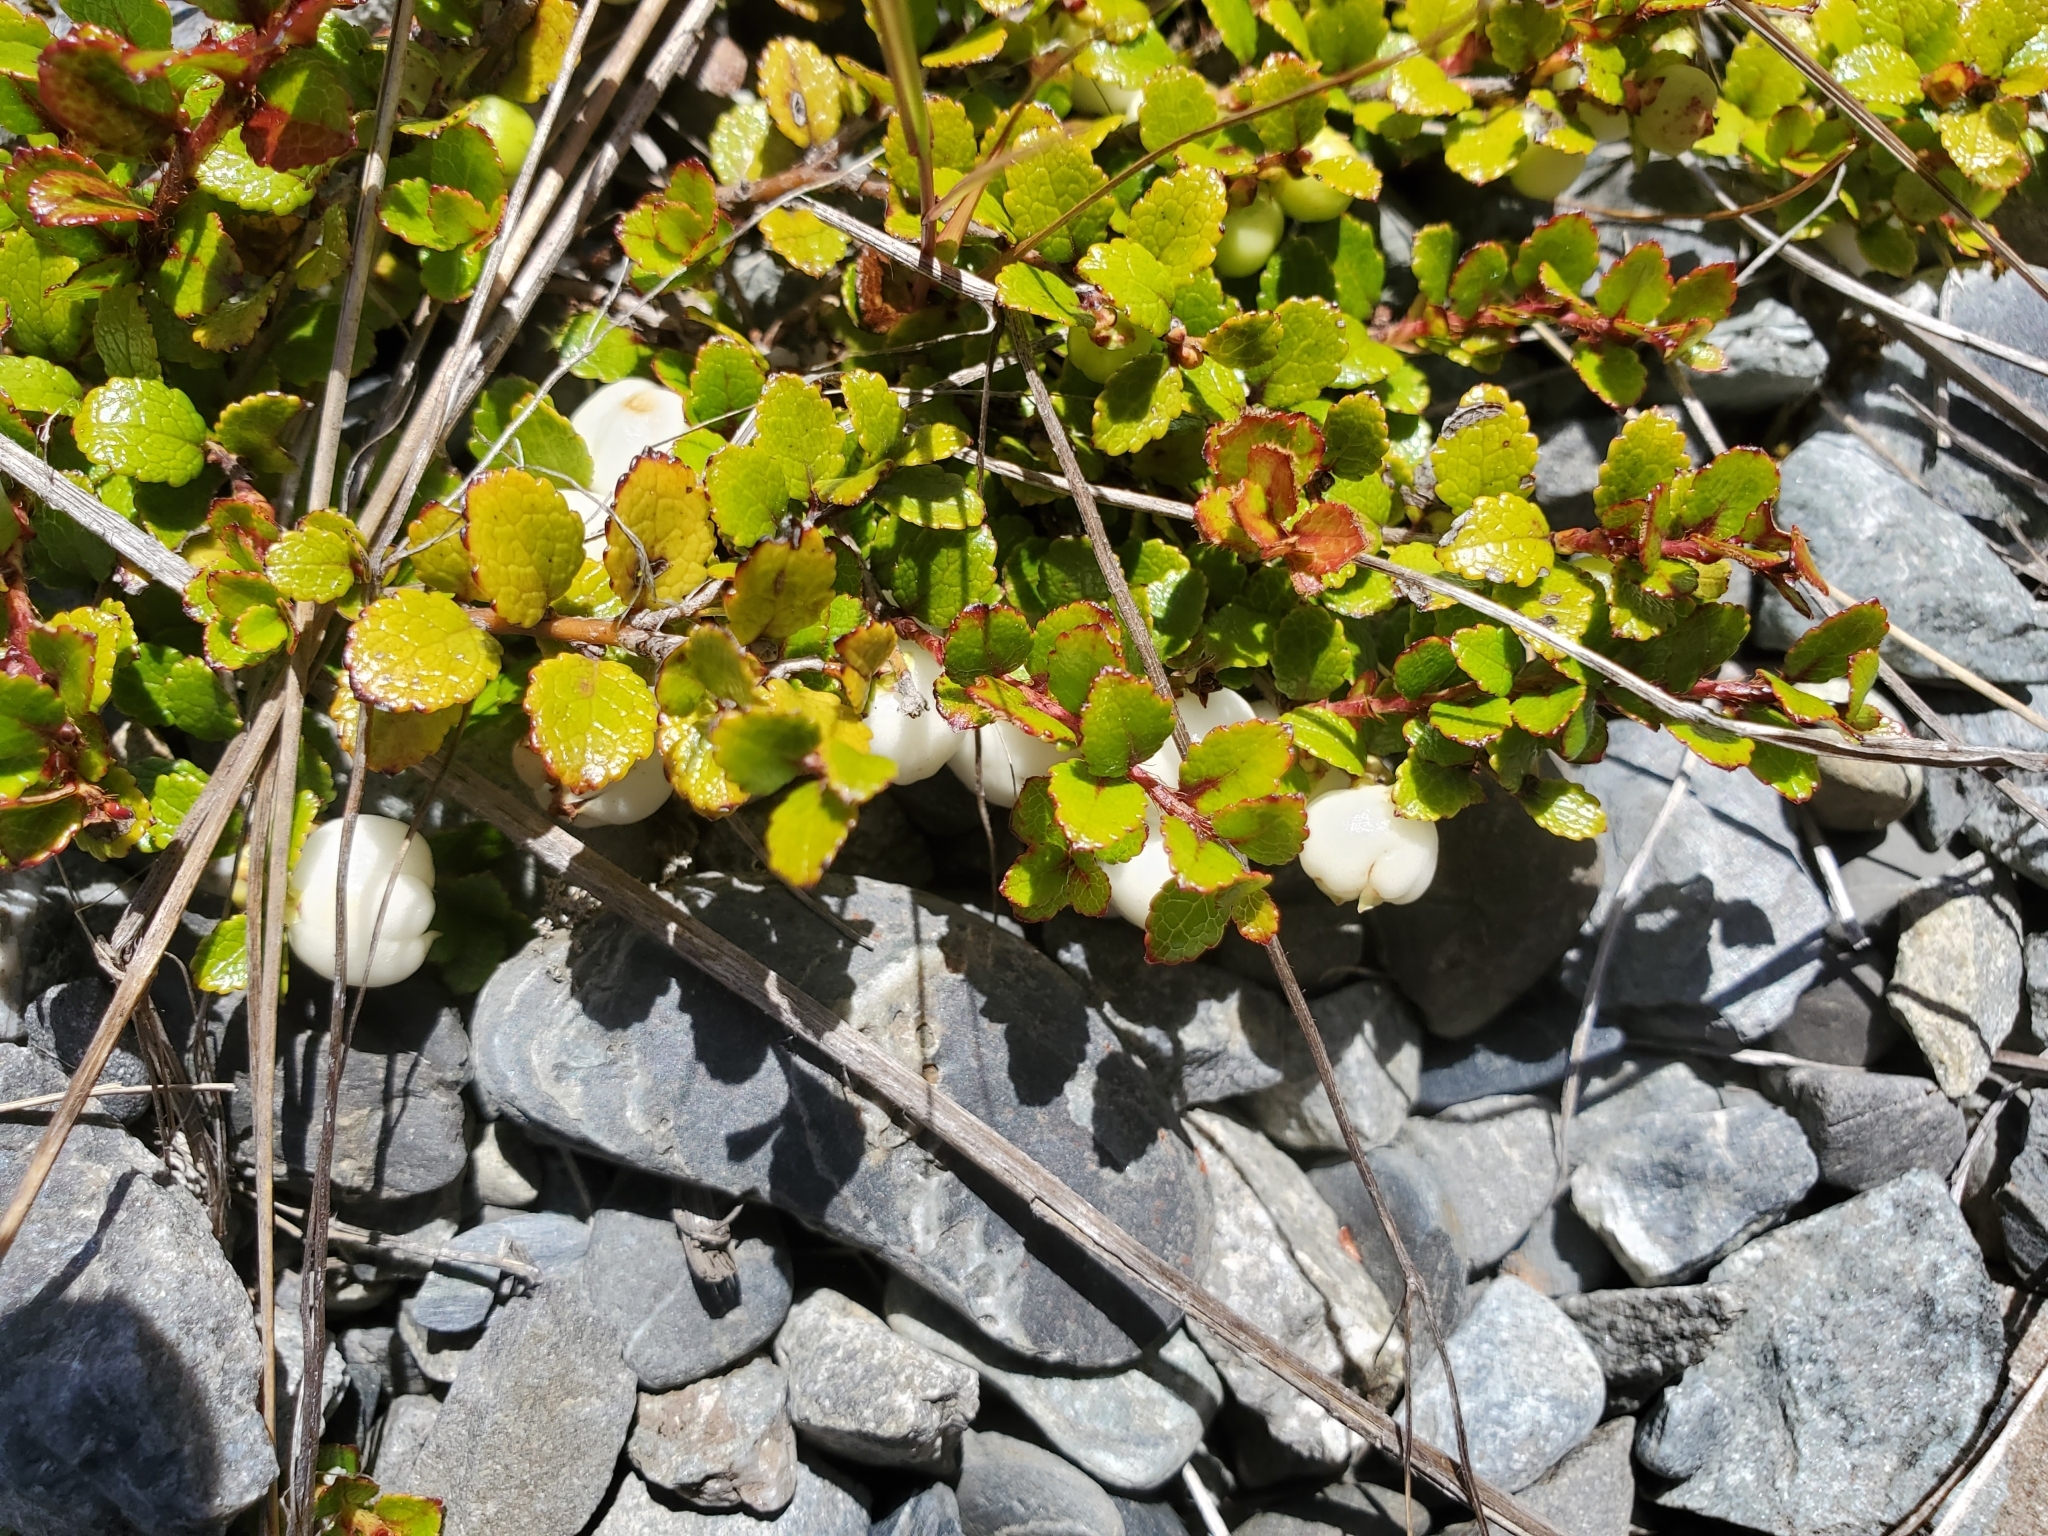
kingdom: Plantae
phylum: Tracheophyta
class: Magnoliopsida
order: Ericales
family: Ericaceae
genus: Gaultheria
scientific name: Gaultheria depressa
